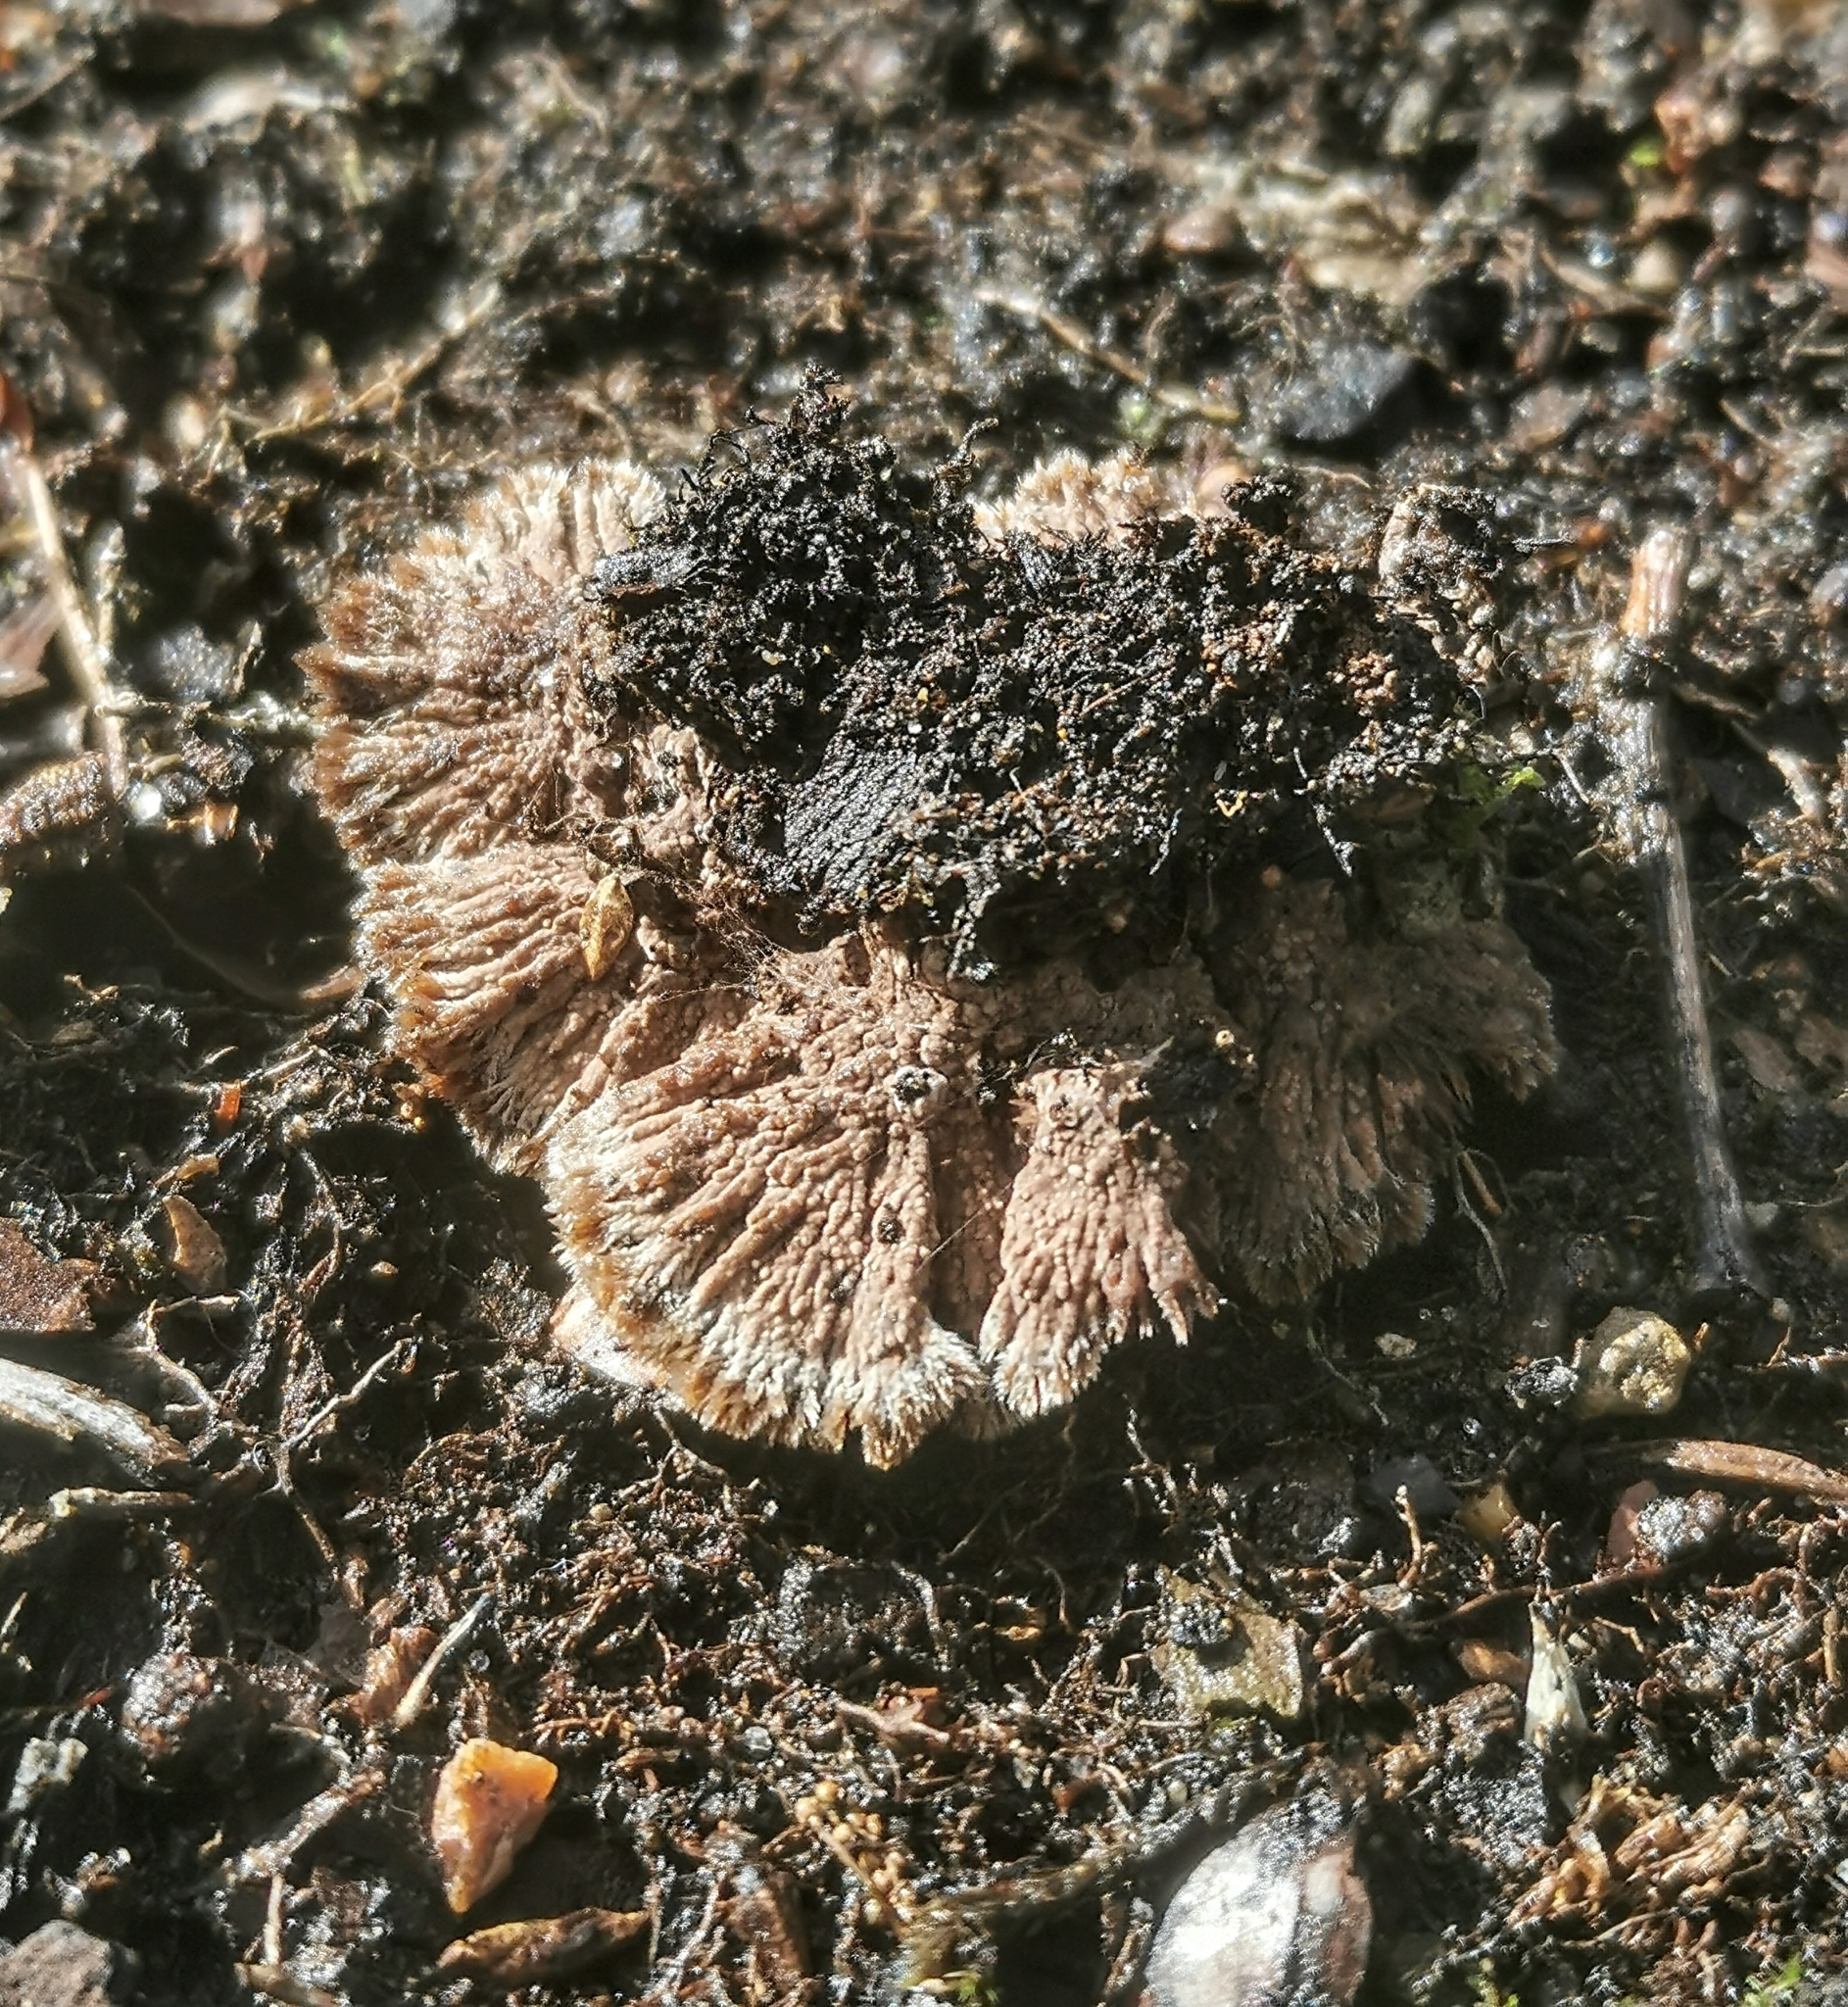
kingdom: Fungi
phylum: Basidiomycota
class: Agaricomycetes
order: Thelephorales
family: Thelephoraceae
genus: Thelephora
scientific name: Thelephora terrestris
